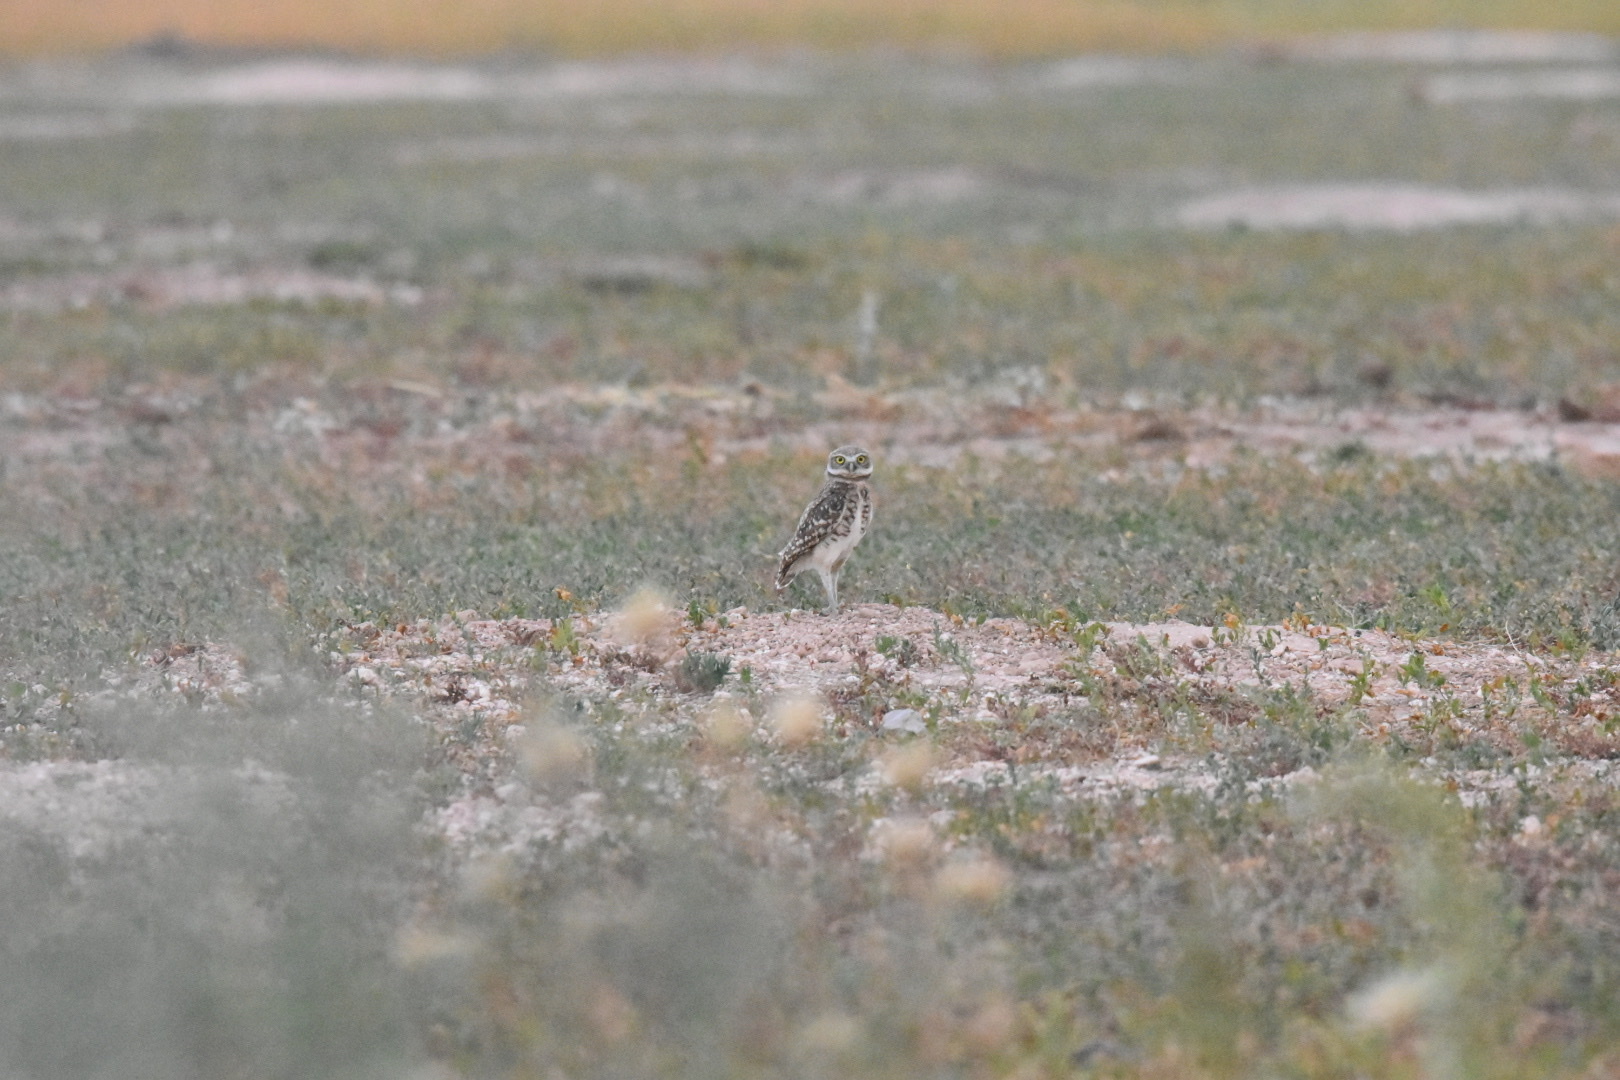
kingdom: Animalia
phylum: Chordata
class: Aves
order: Strigiformes
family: Strigidae
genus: Athene
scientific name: Athene cunicularia
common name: Burrowing owl
